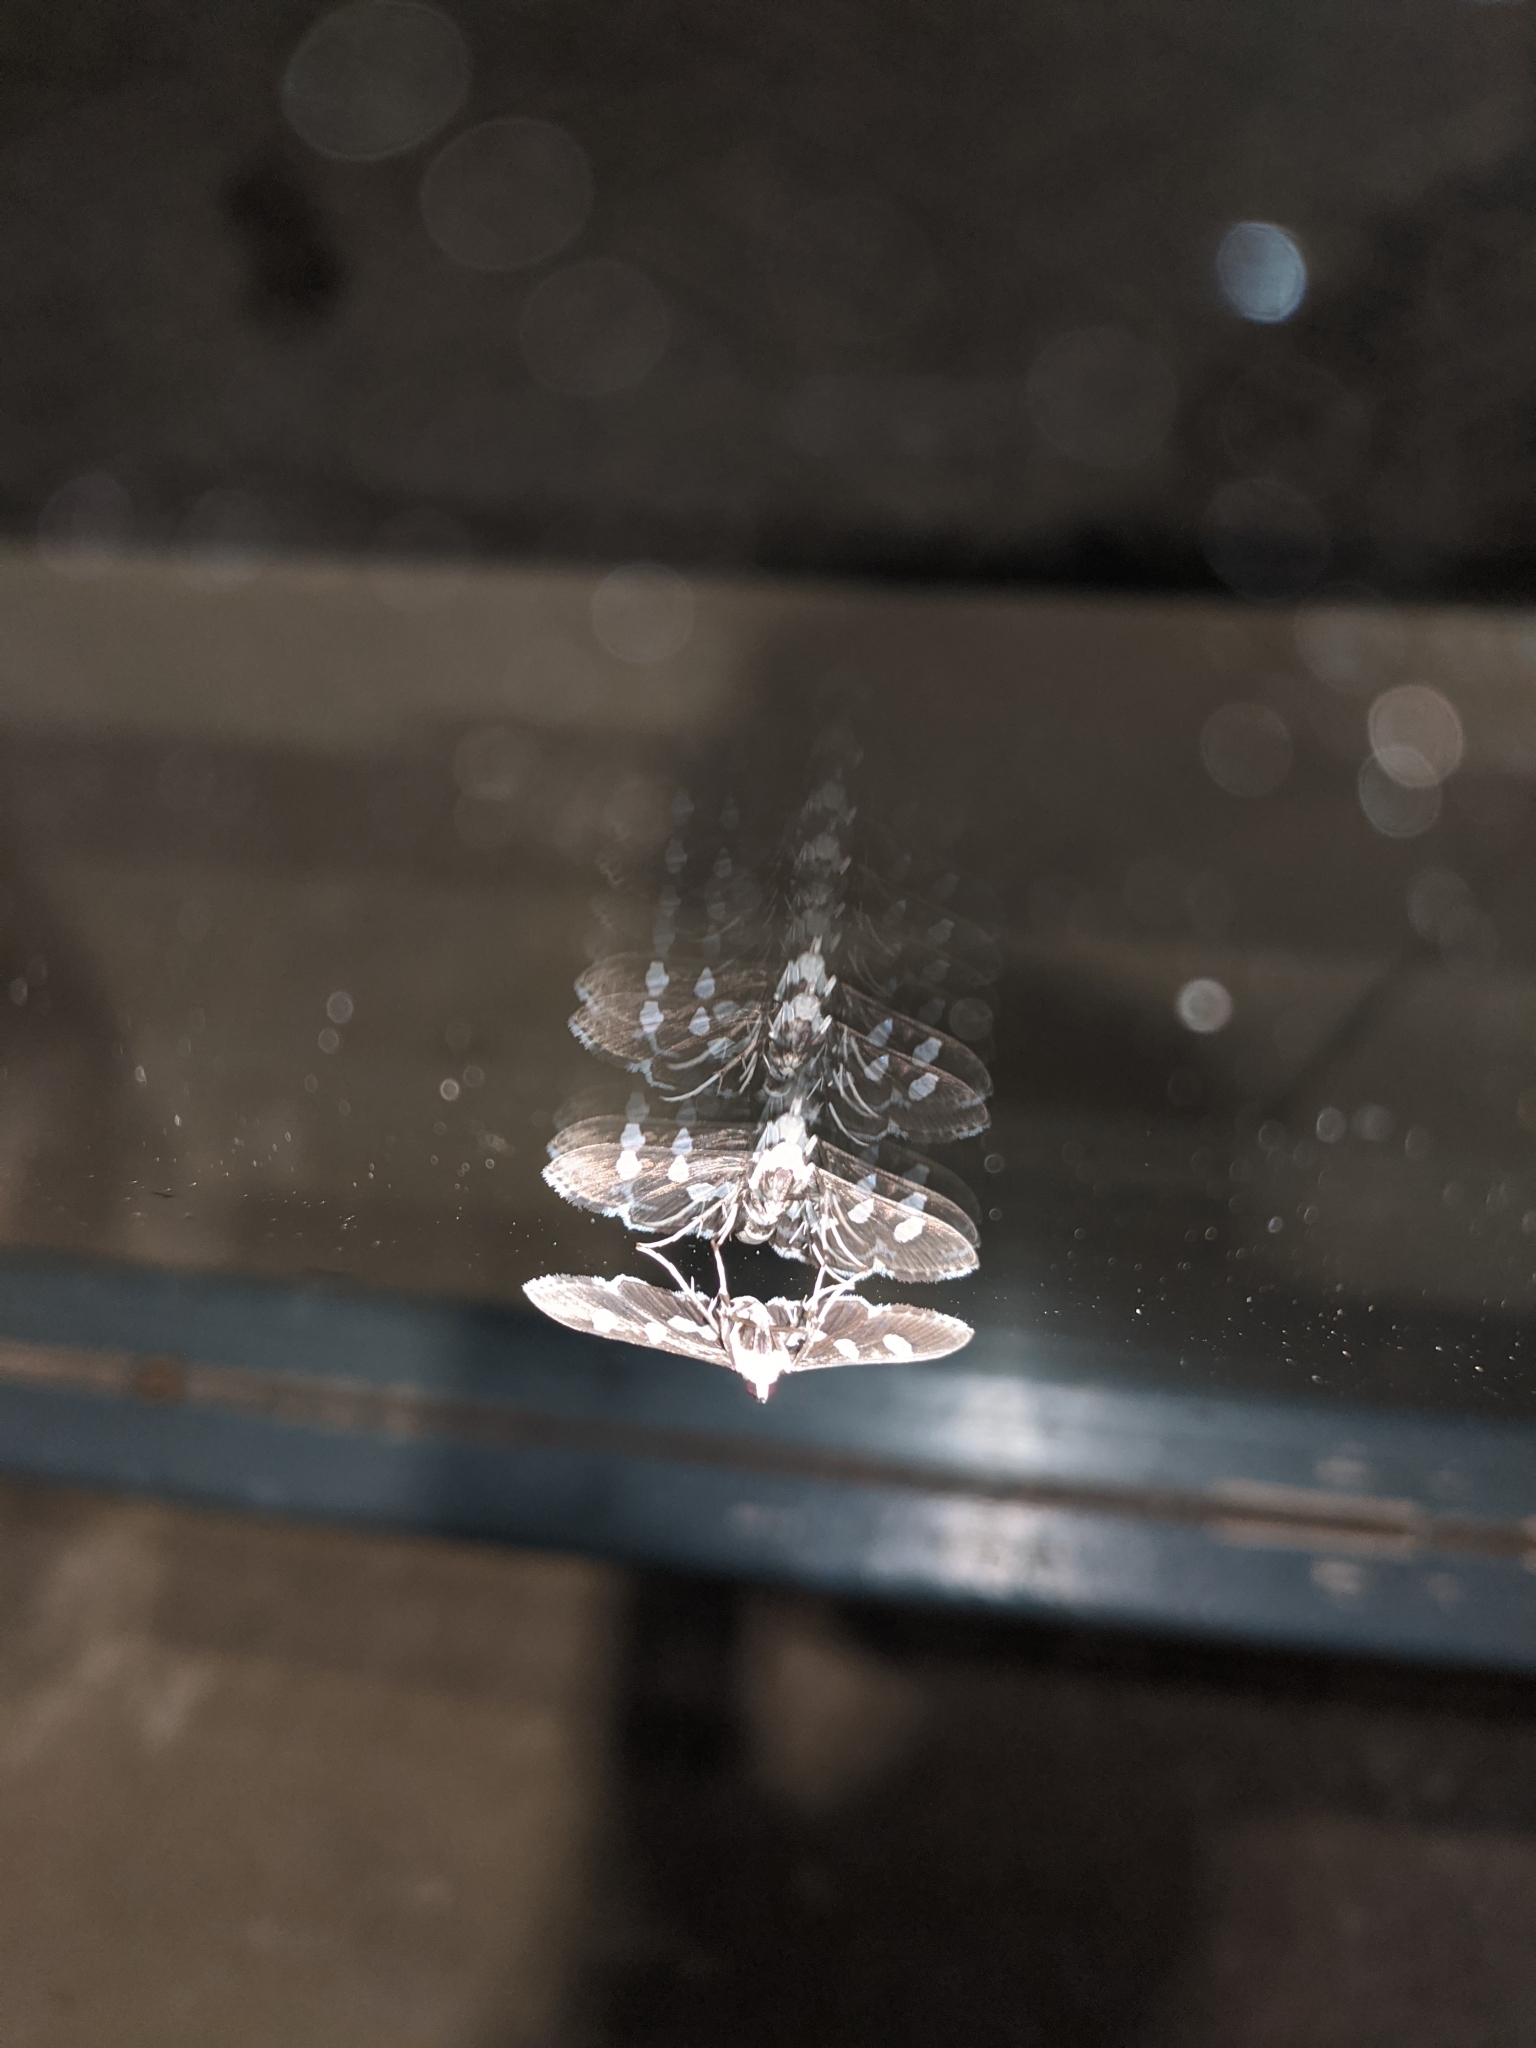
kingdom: Animalia
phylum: Arthropoda
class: Insecta
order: Lepidoptera
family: Crambidae
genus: Desmia
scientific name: Desmia
